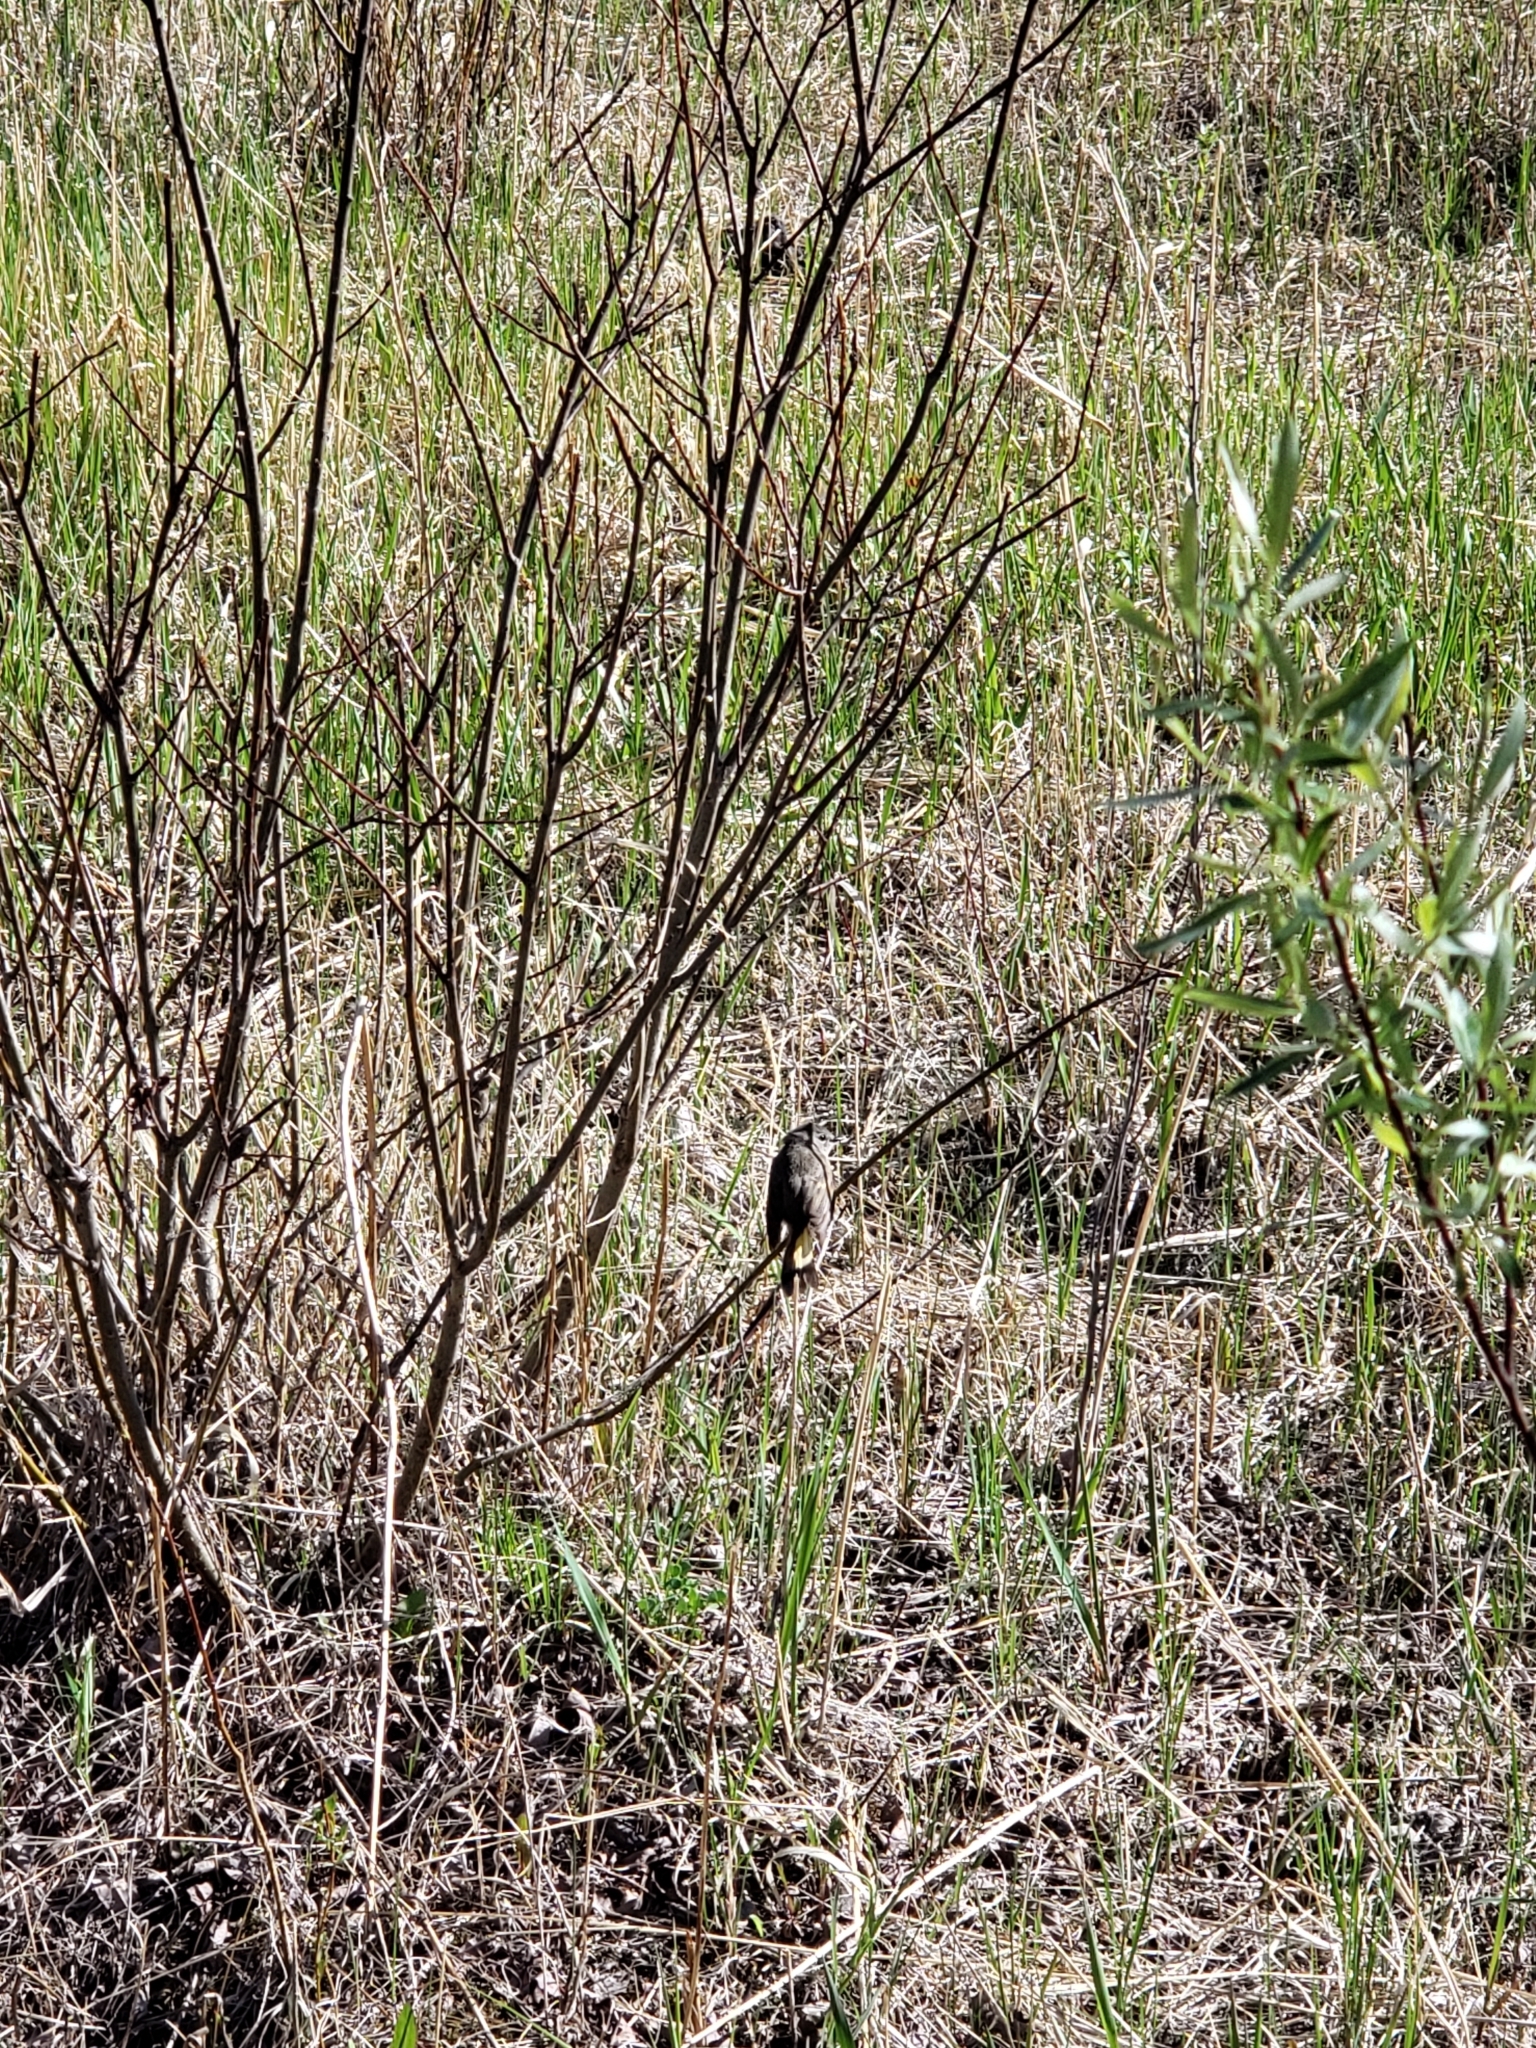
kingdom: Animalia
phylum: Chordata
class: Aves
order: Passeriformes
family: Parulidae
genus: Setophaga
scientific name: Setophaga ruticilla
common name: American redstart
